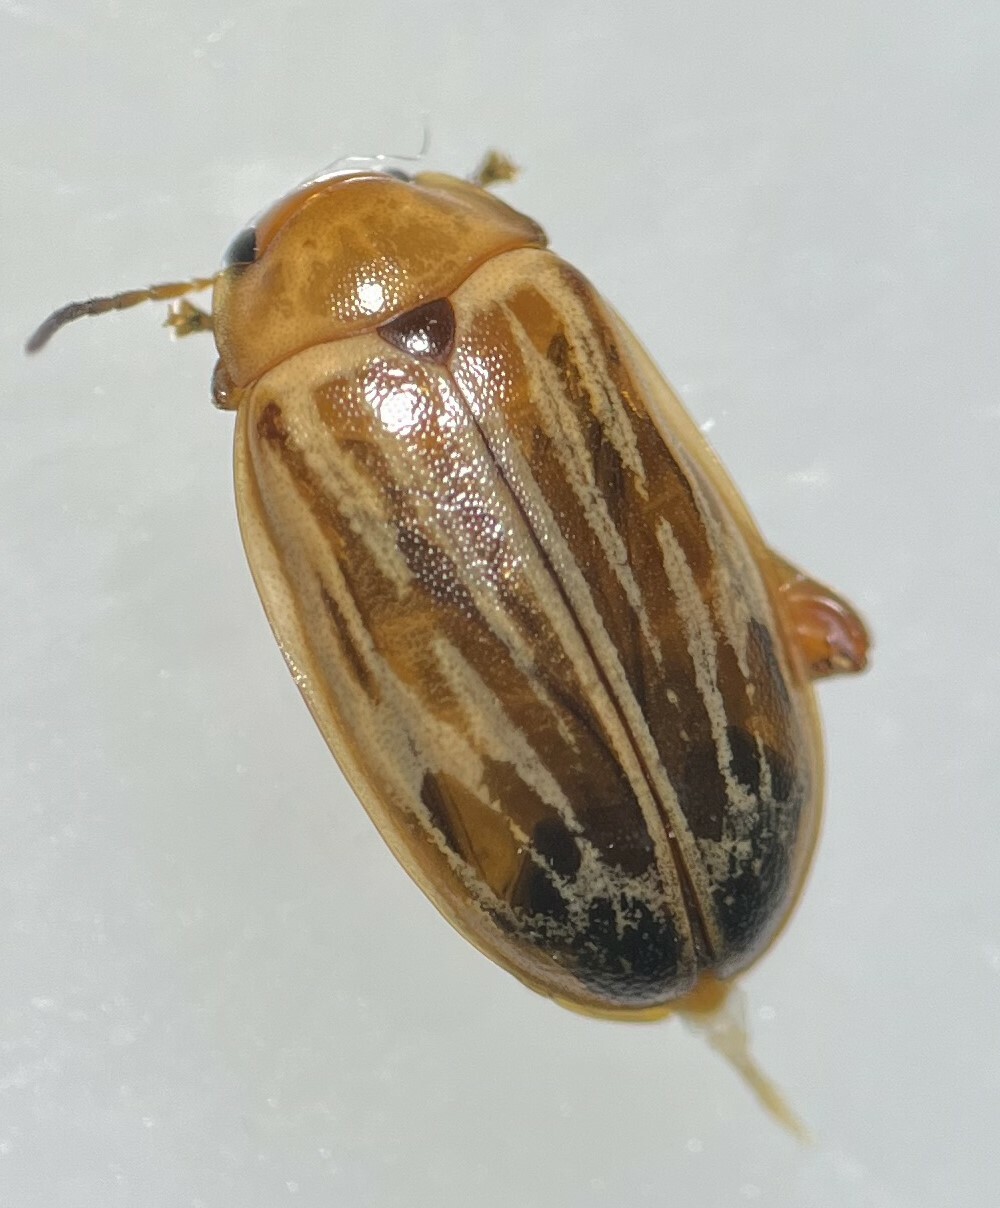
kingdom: Animalia
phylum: Arthropoda
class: Insecta
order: Coleoptera
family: Scirtidae
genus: Ora
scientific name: Ora troberti
